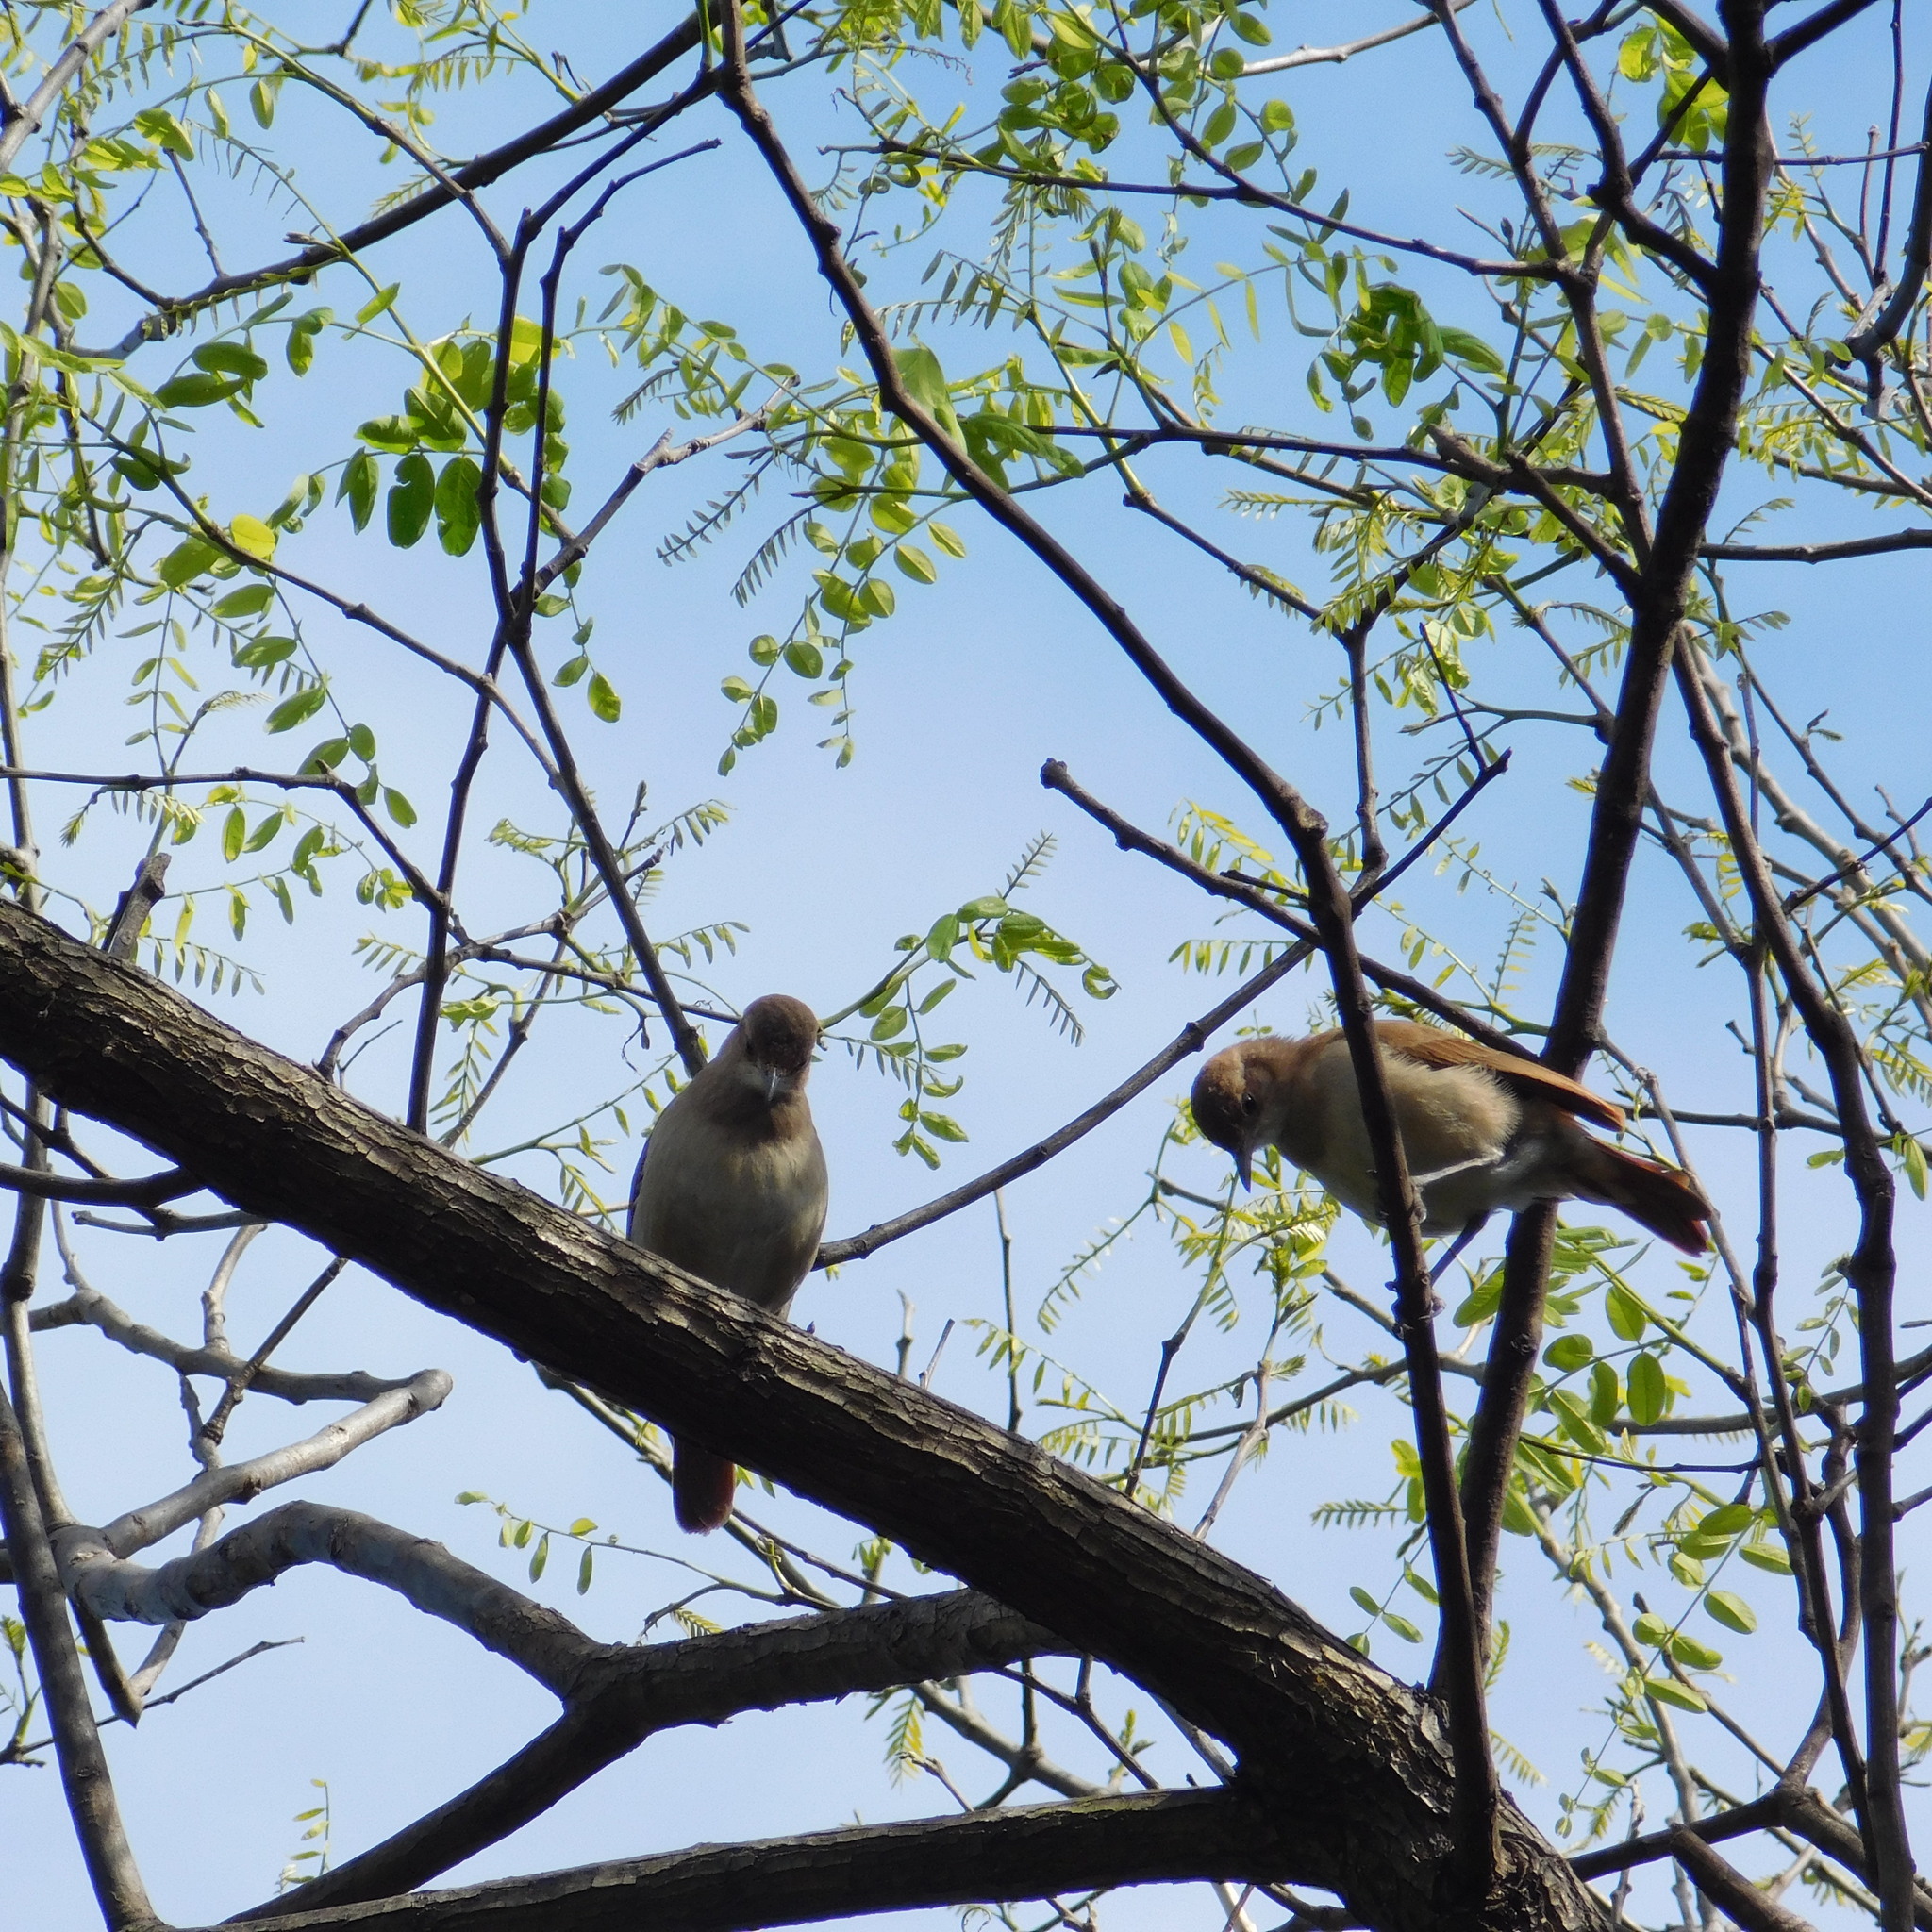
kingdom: Animalia
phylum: Chordata
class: Aves
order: Passeriformes
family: Furnariidae
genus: Furnarius
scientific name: Furnarius rufus
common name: Rufous hornero
